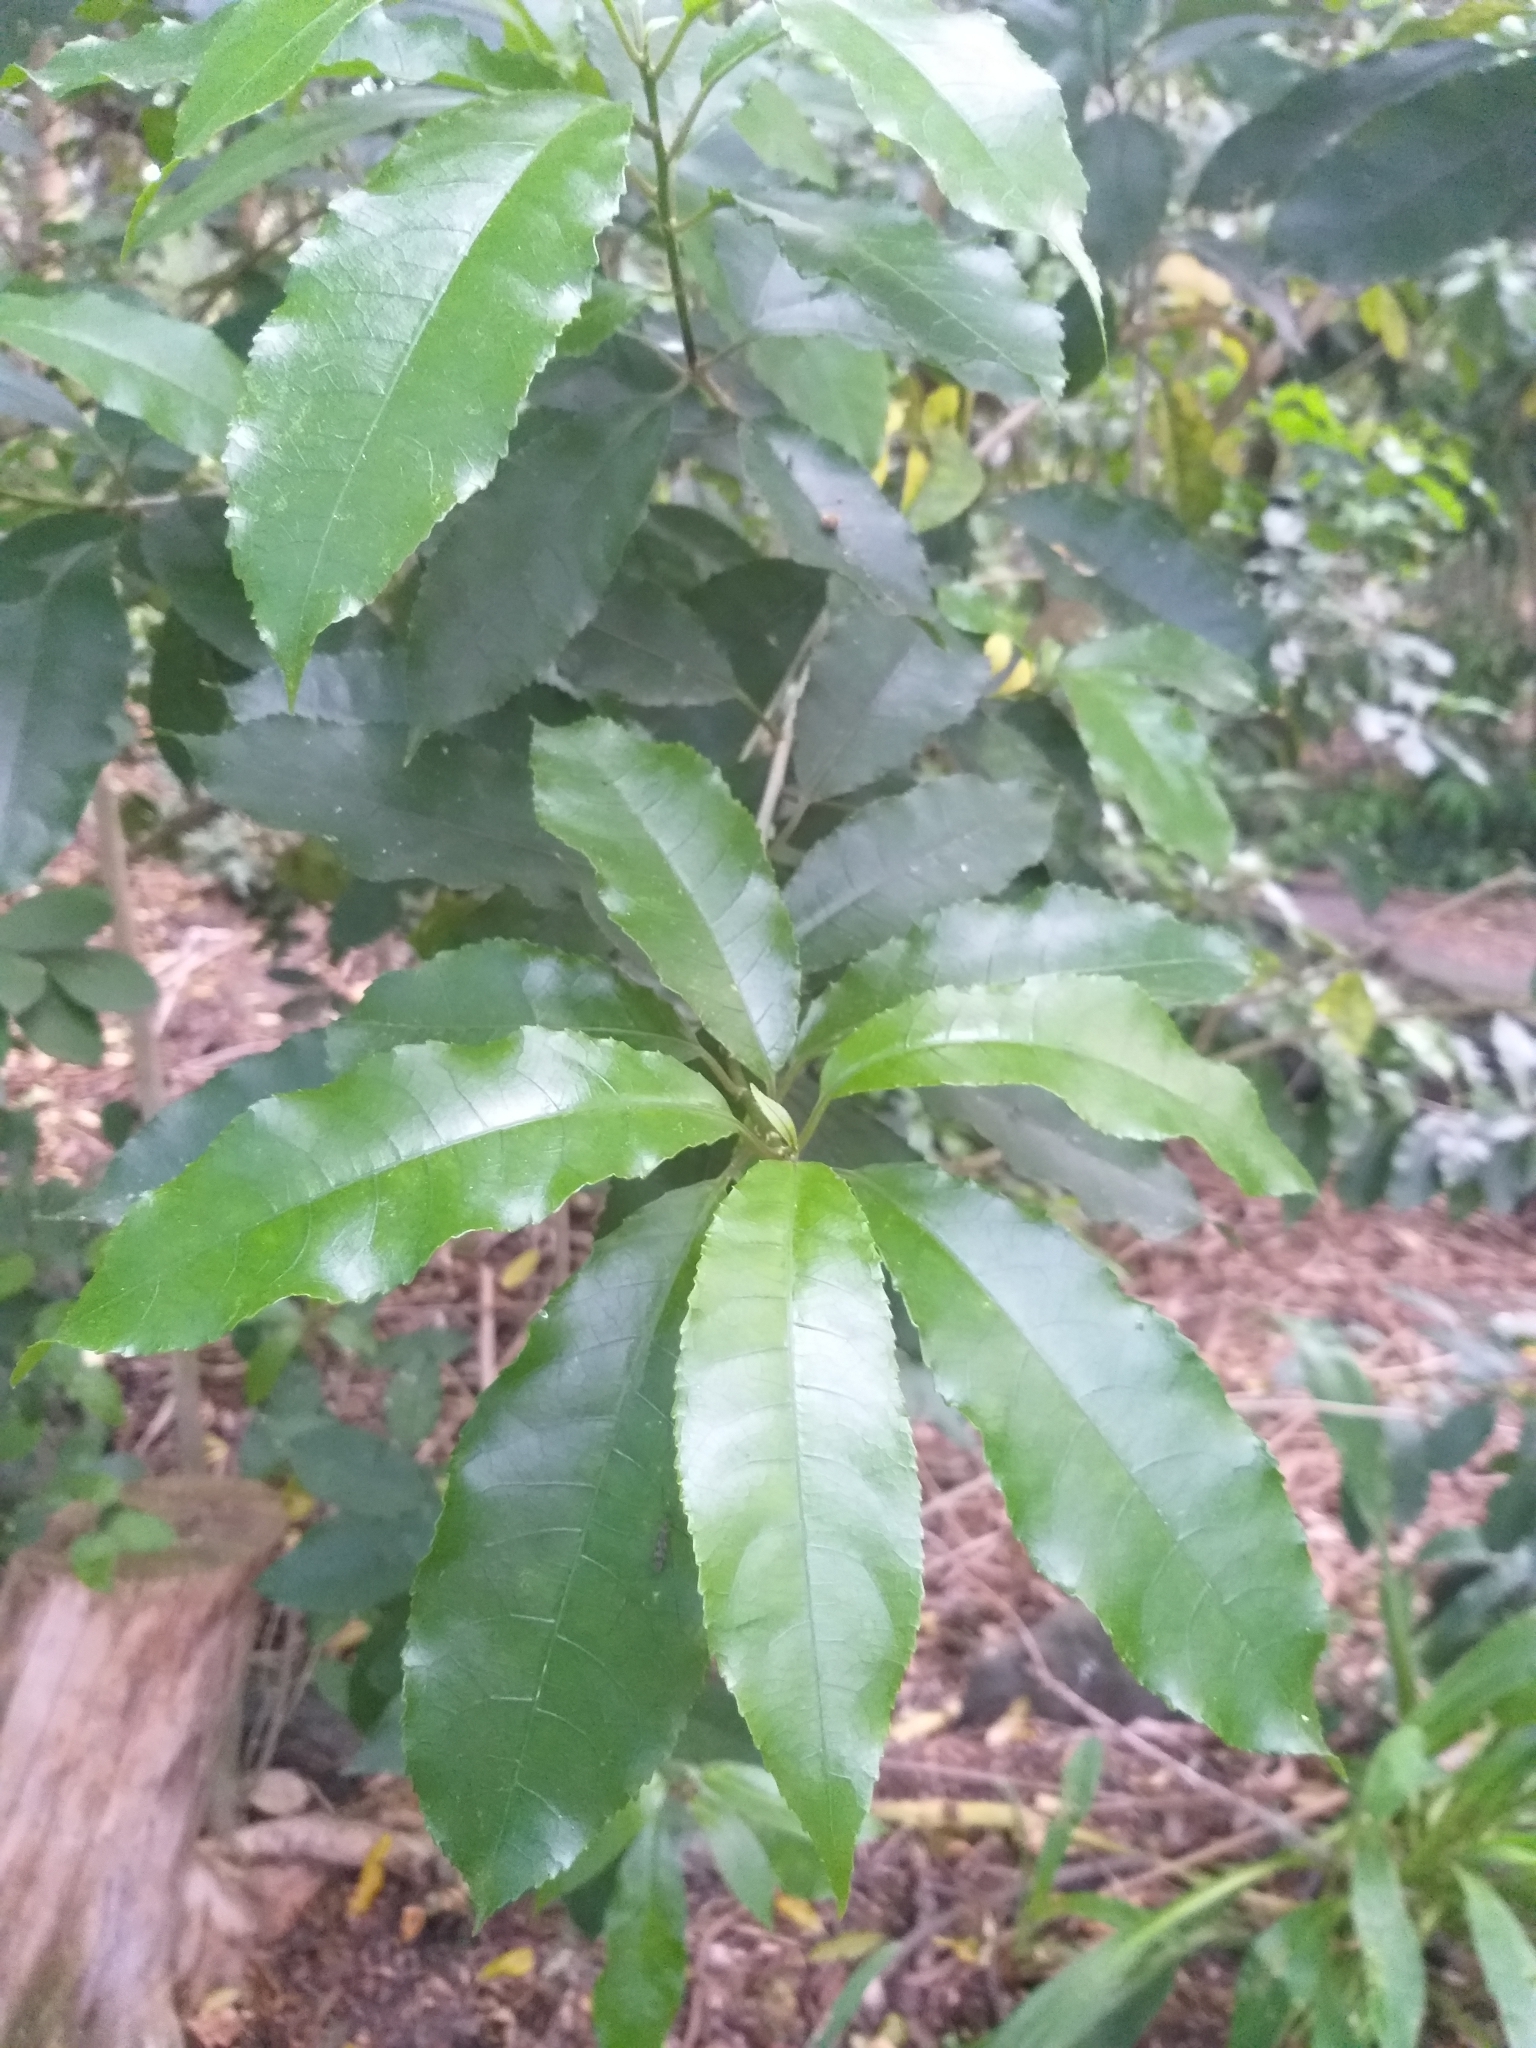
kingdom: Plantae
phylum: Tracheophyta
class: Magnoliopsida
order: Malpighiales
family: Violaceae
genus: Melicytus
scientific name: Melicytus ramiflorus
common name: Mahoe
